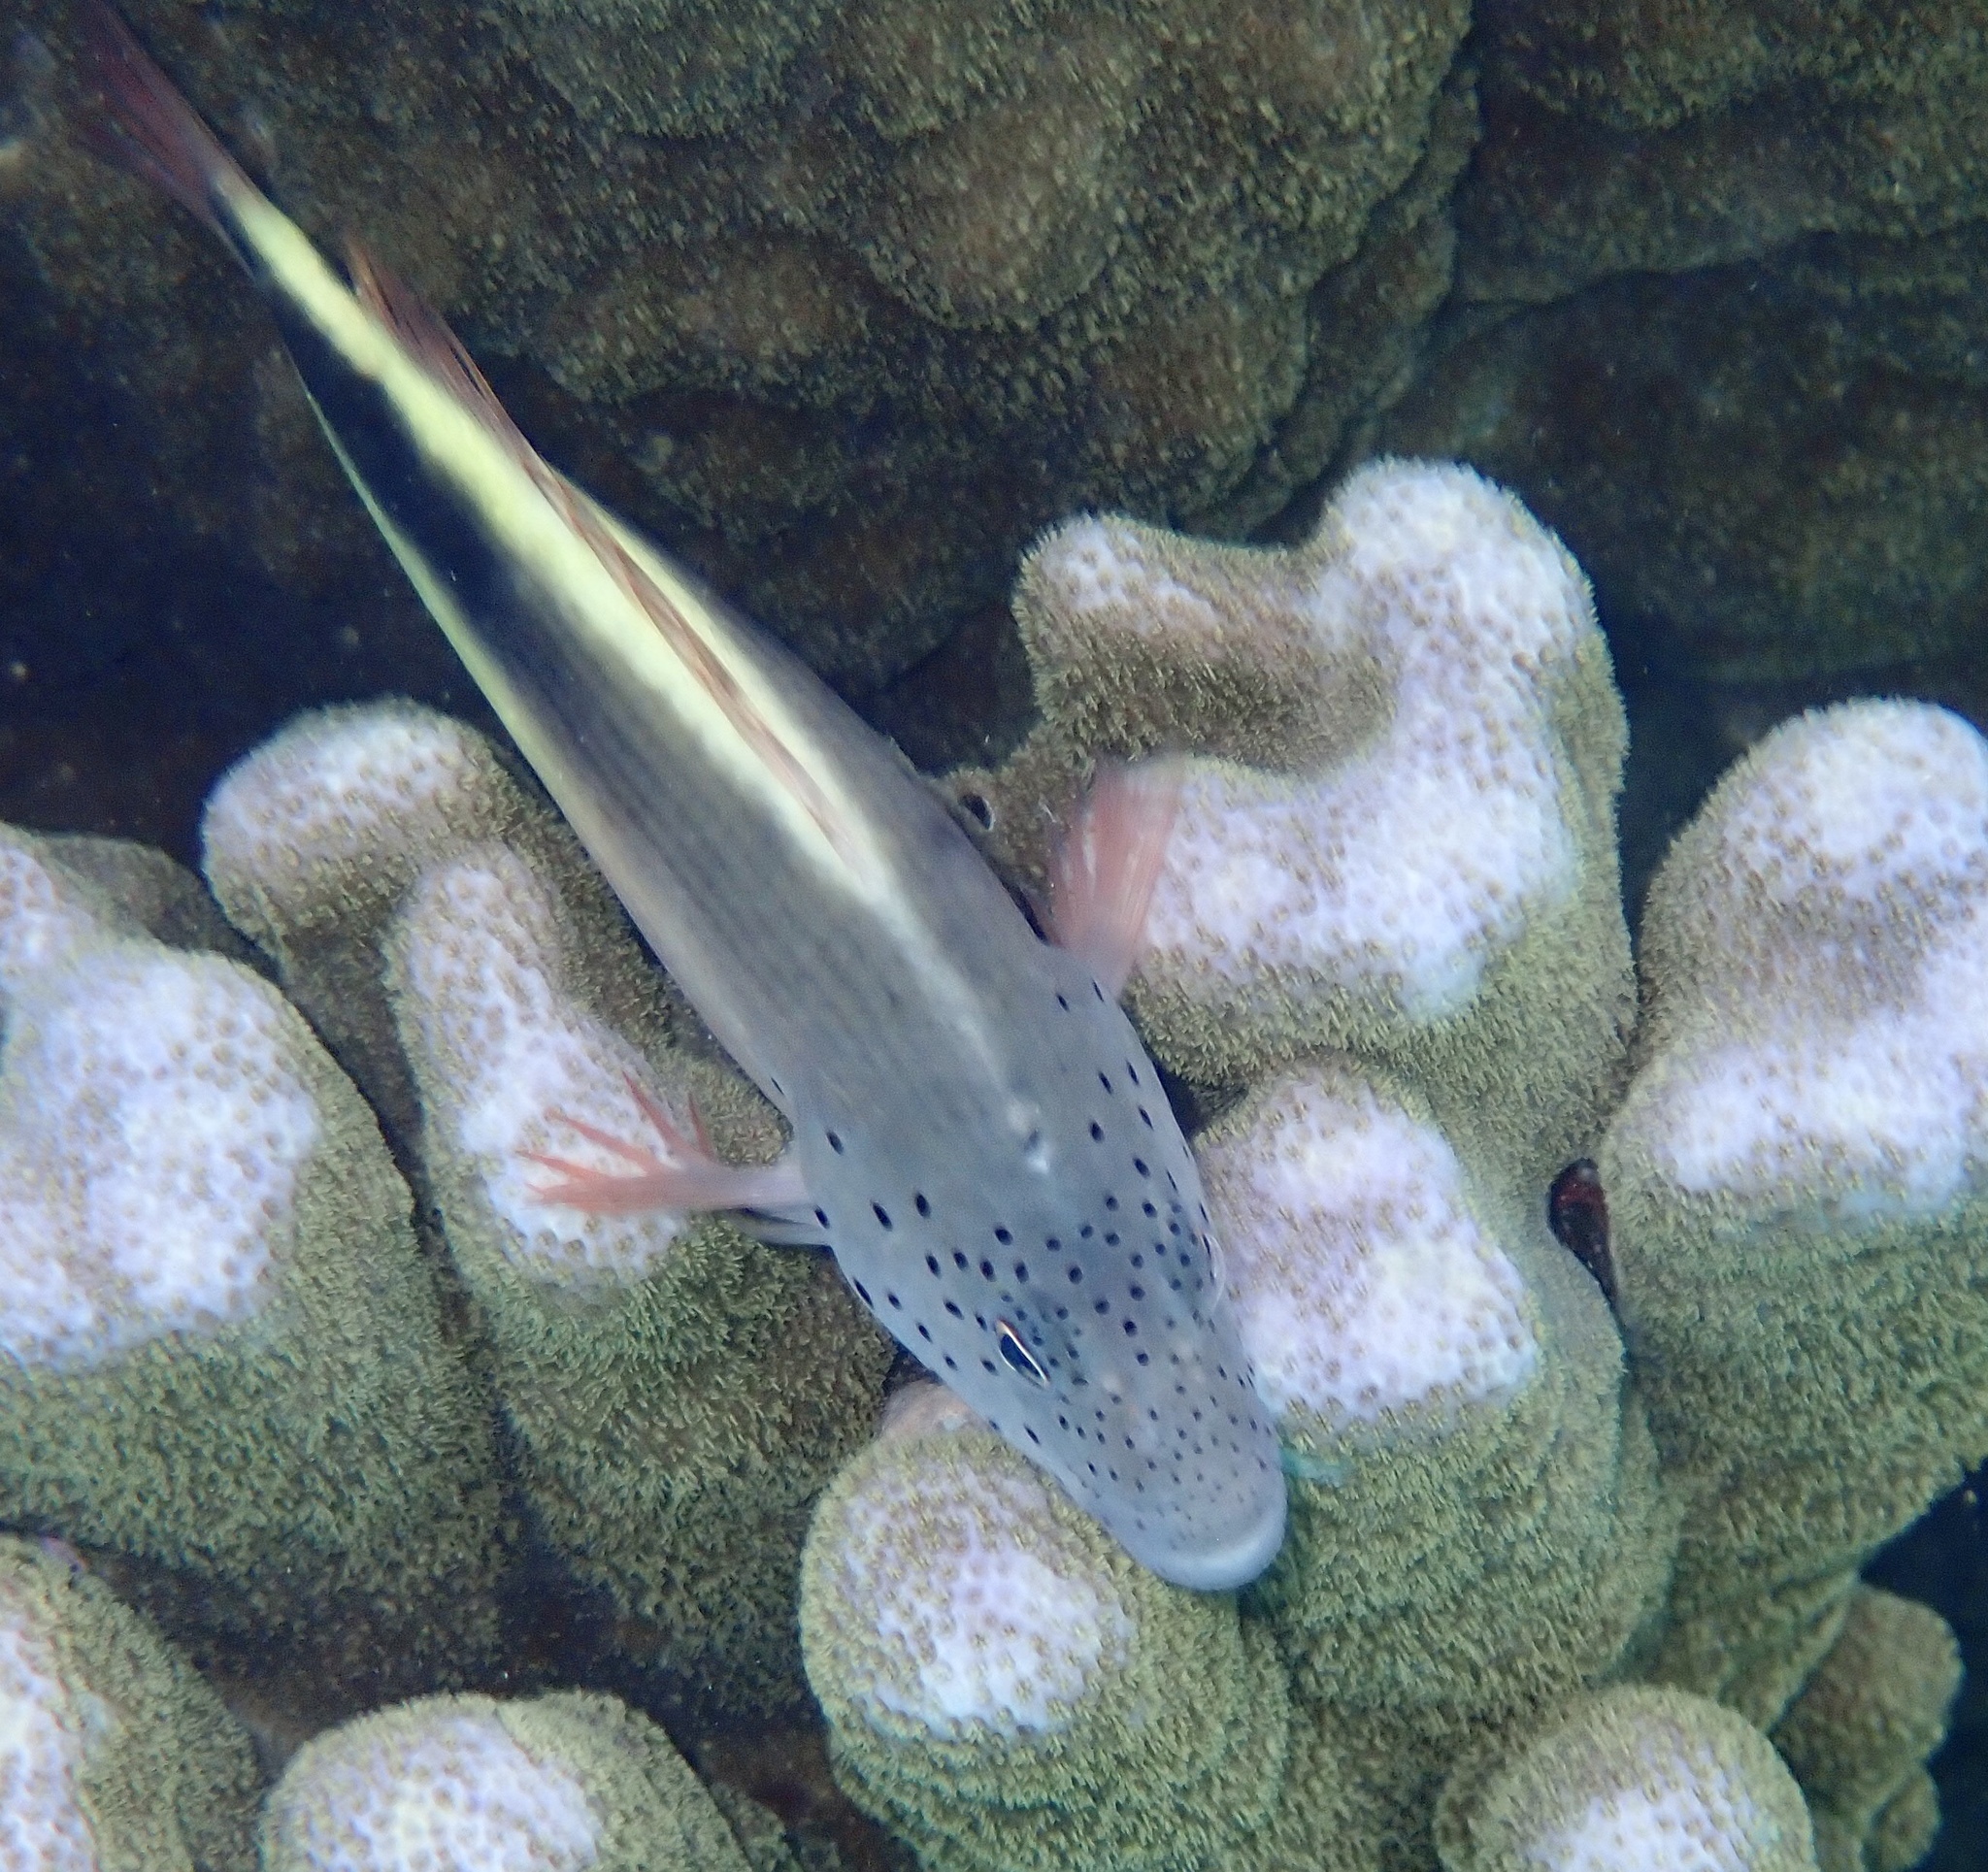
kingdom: Animalia
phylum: Chordata
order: Perciformes
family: Cirrhitidae
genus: Paracirrhites
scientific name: Paracirrhites forsteri
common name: Freckled hawkfish
